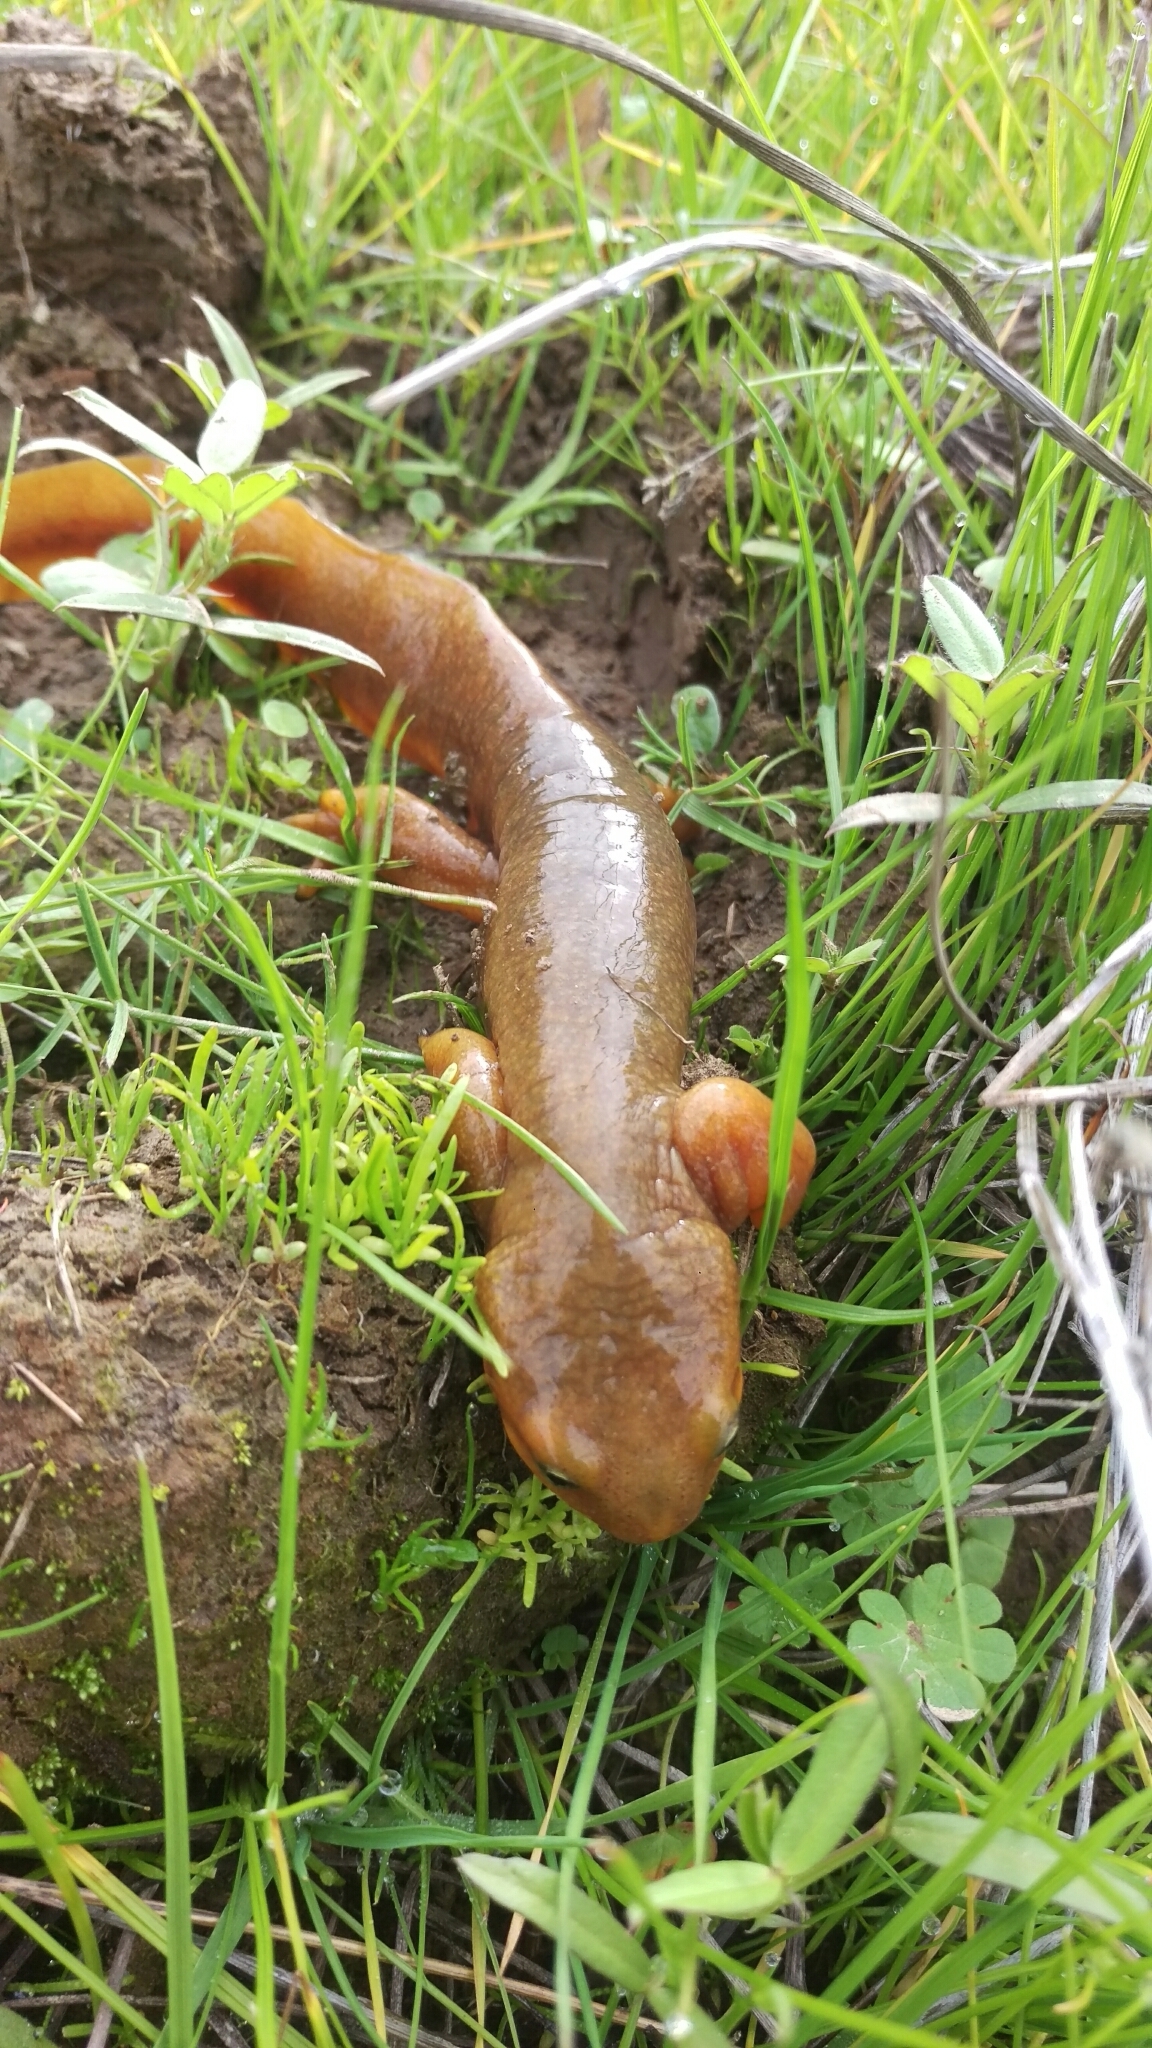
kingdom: Animalia
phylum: Chordata
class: Amphibia
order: Caudata
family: Salamandridae
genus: Taricha
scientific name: Taricha torosa
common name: California newt
